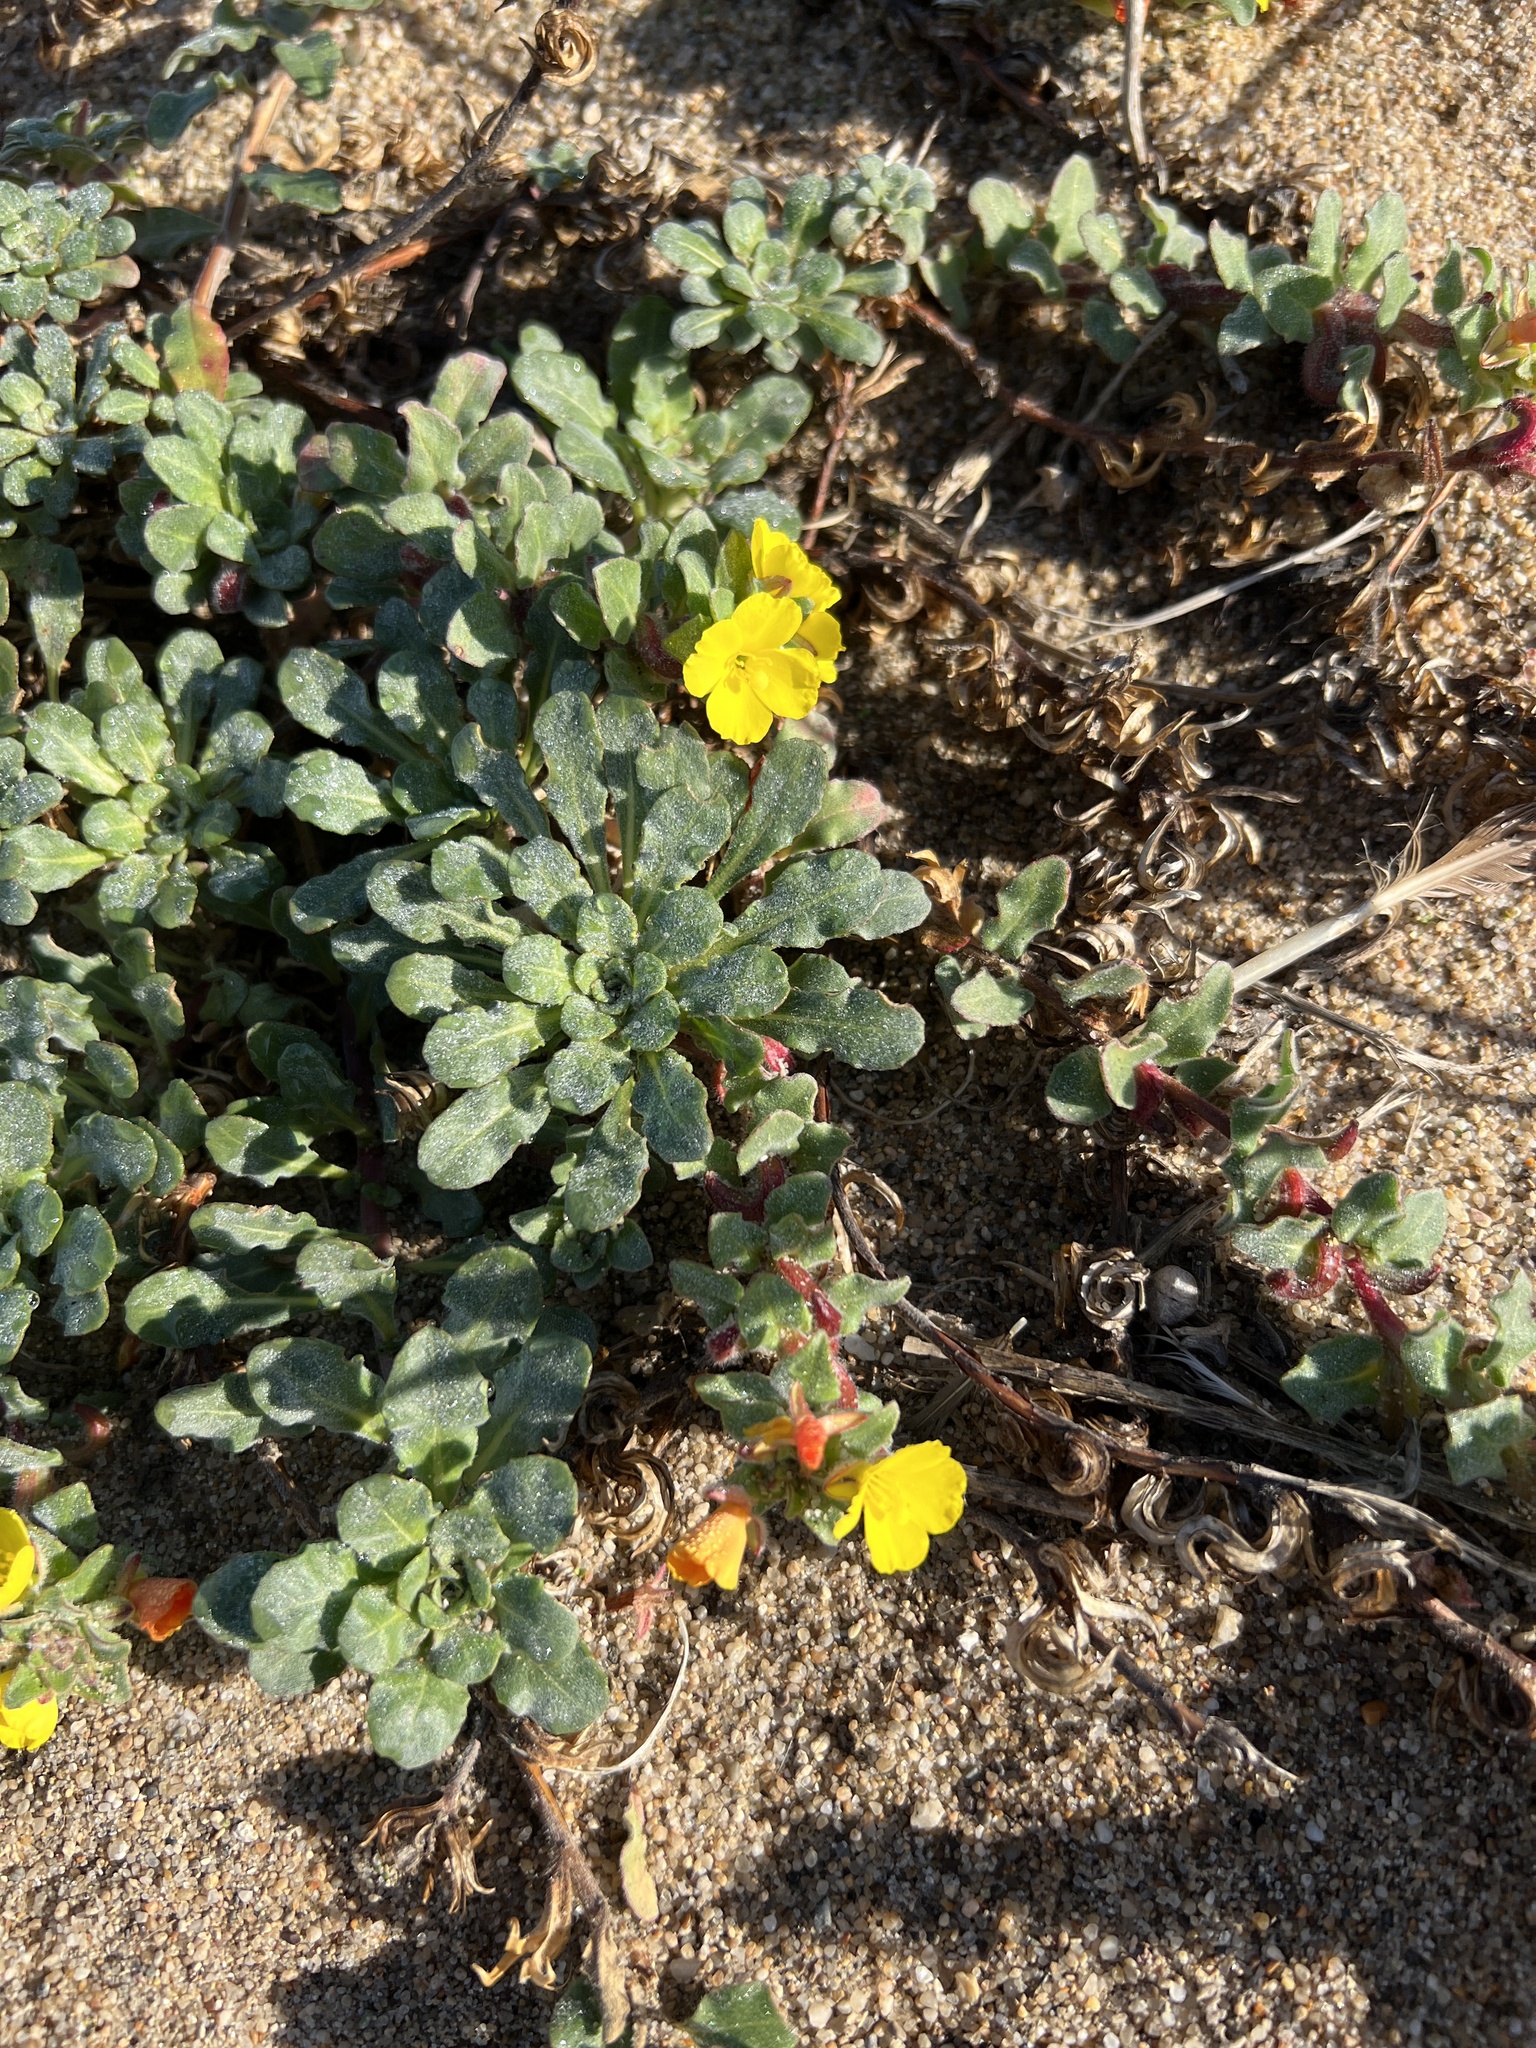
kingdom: Plantae
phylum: Tracheophyta
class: Magnoliopsida
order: Myrtales
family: Onagraceae
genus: Camissoniopsis
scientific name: Camissoniopsis cheiranthifolia
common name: Beach suncup
